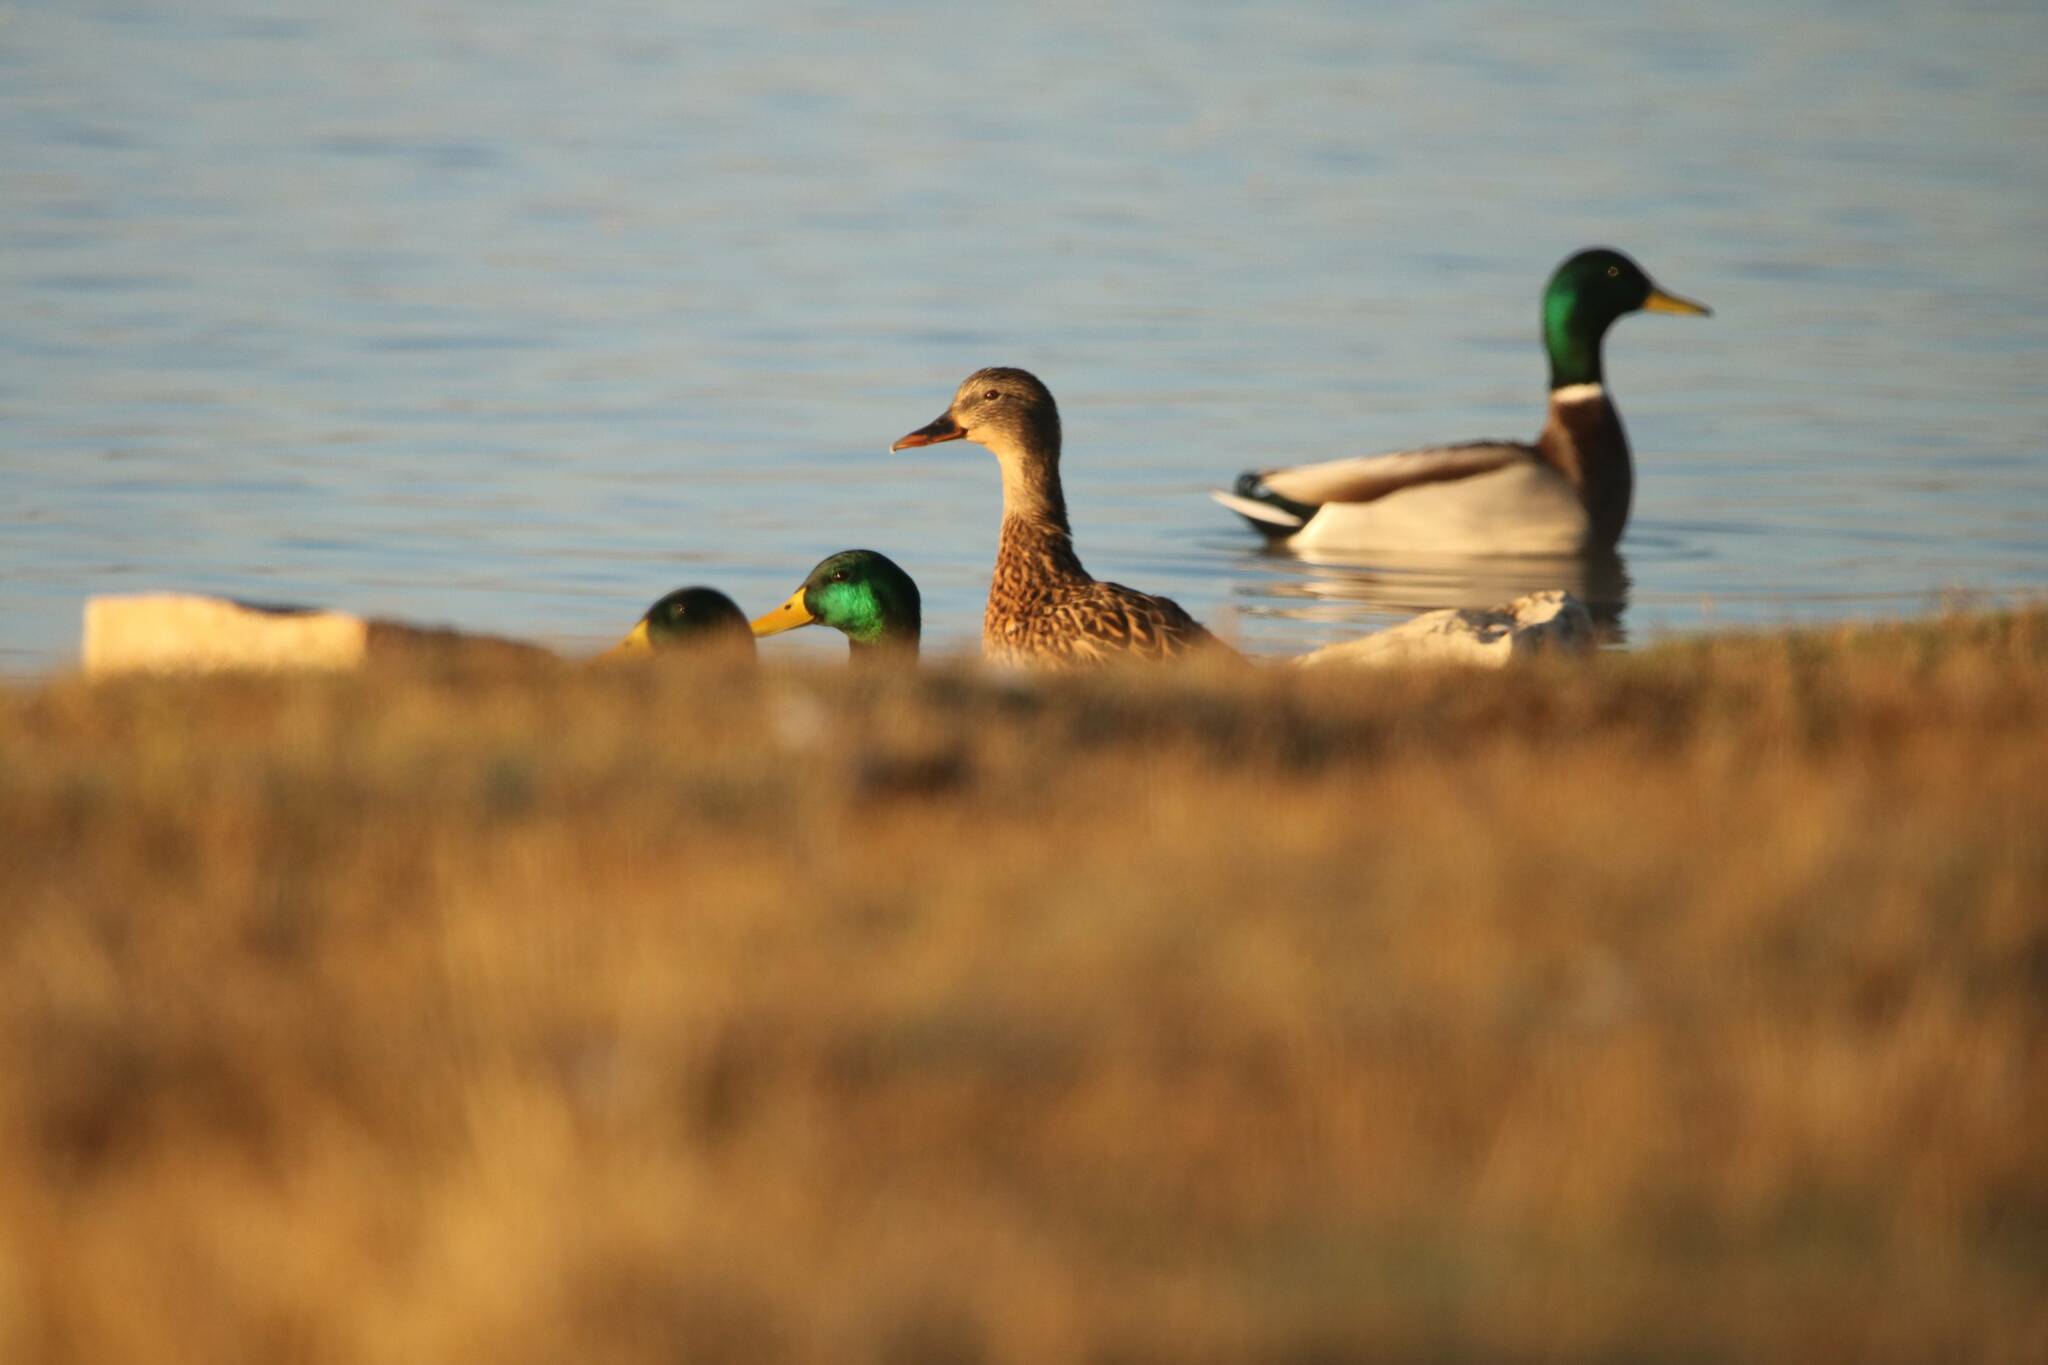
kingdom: Animalia
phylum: Chordata
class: Aves
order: Anseriformes
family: Anatidae
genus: Anas
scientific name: Anas platyrhynchos
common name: Mallard
